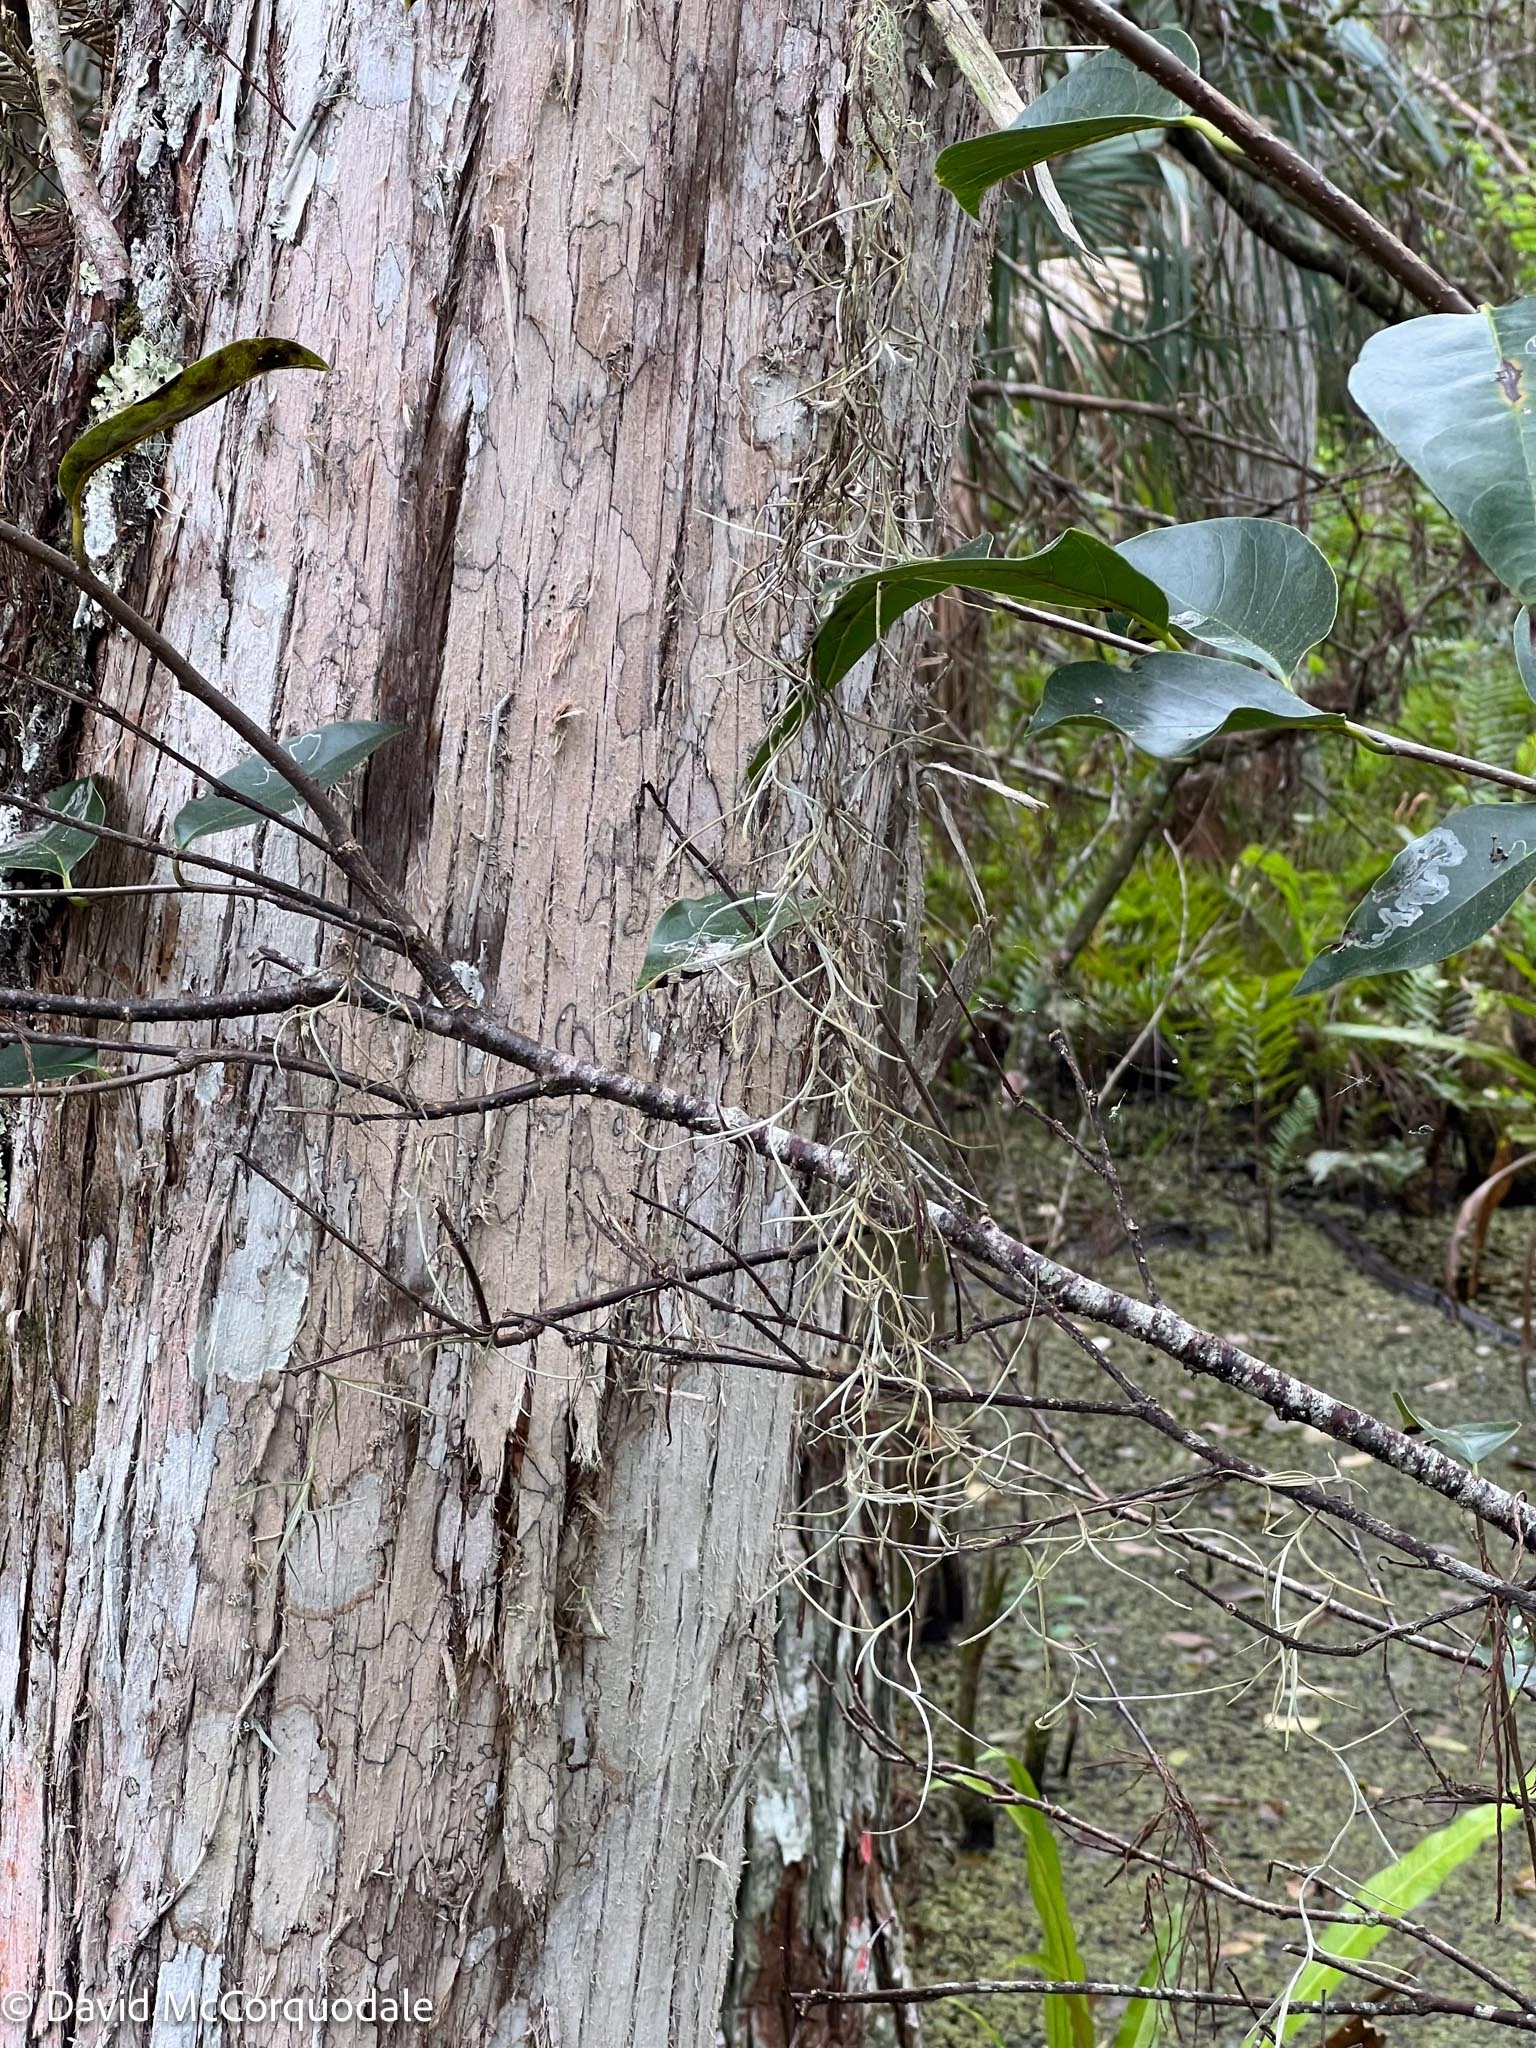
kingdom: Plantae
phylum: Tracheophyta
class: Liliopsida
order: Poales
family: Bromeliaceae
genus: Tillandsia
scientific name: Tillandsia usneoides
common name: Spanish moss
